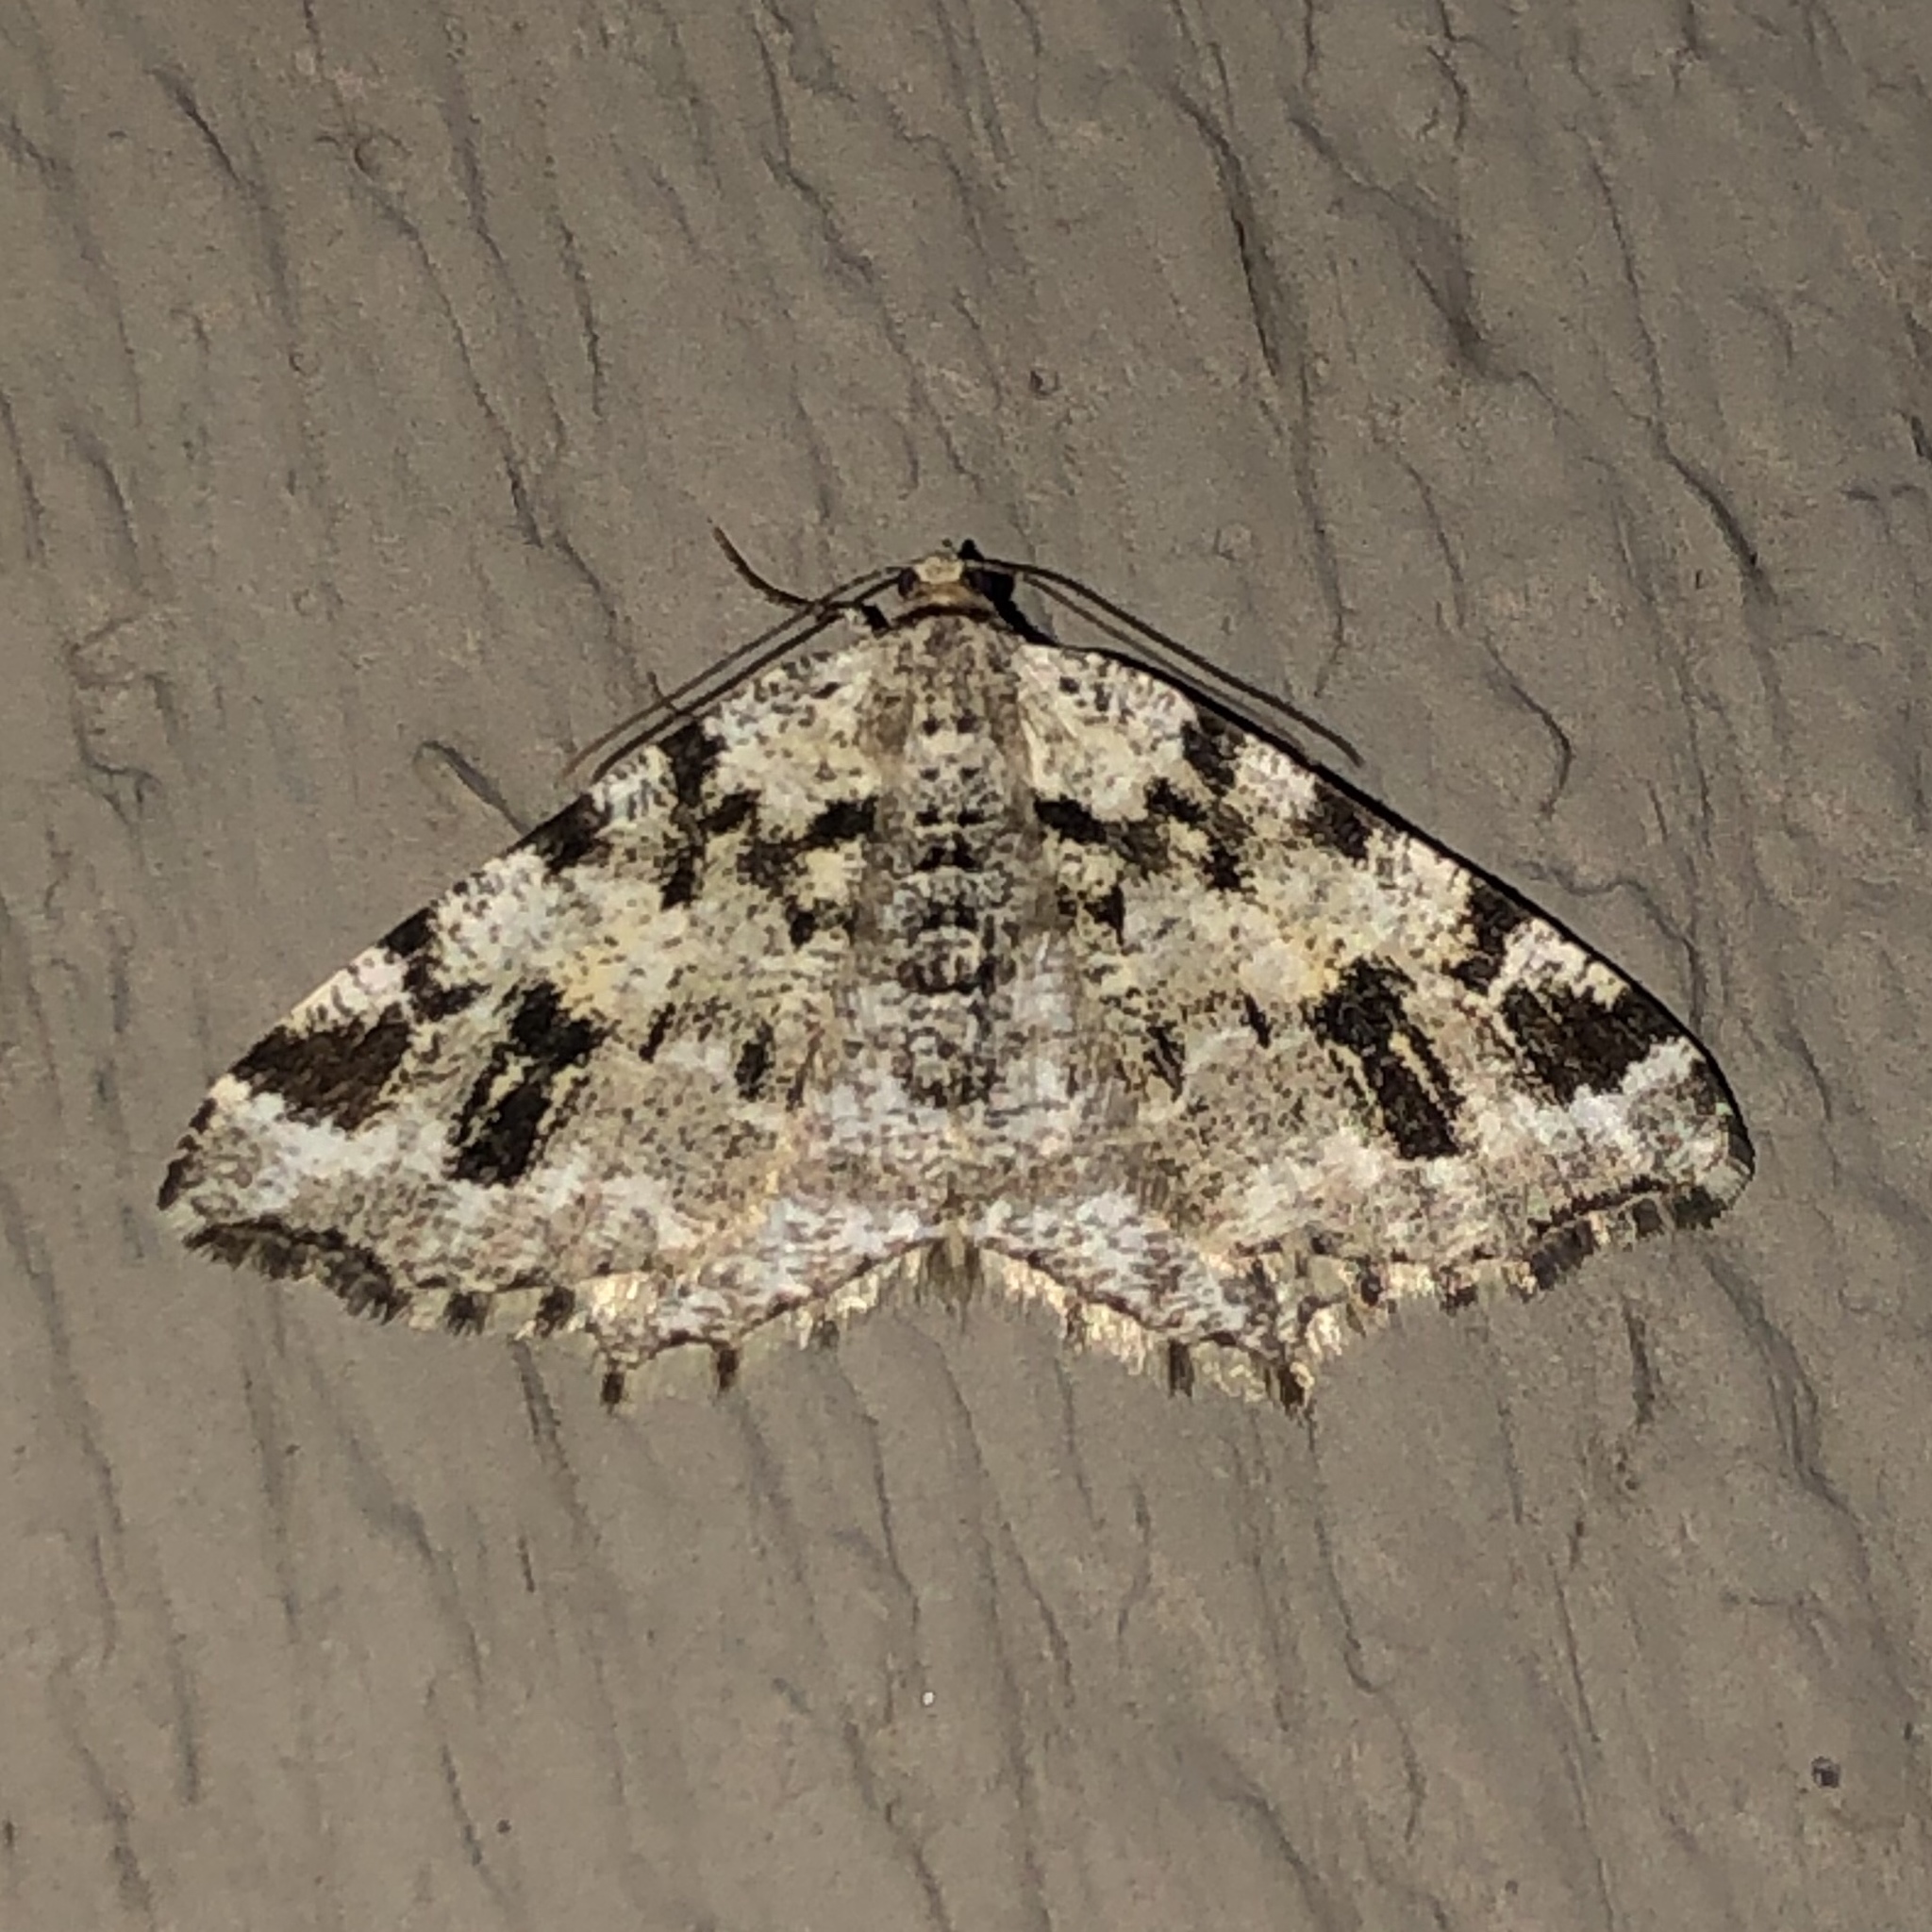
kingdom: Animalia
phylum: Arthropoda
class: Insecta
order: Lepidoptera
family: Geometridae
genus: Macaria
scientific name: Macaria oweni
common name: Owen's angle
